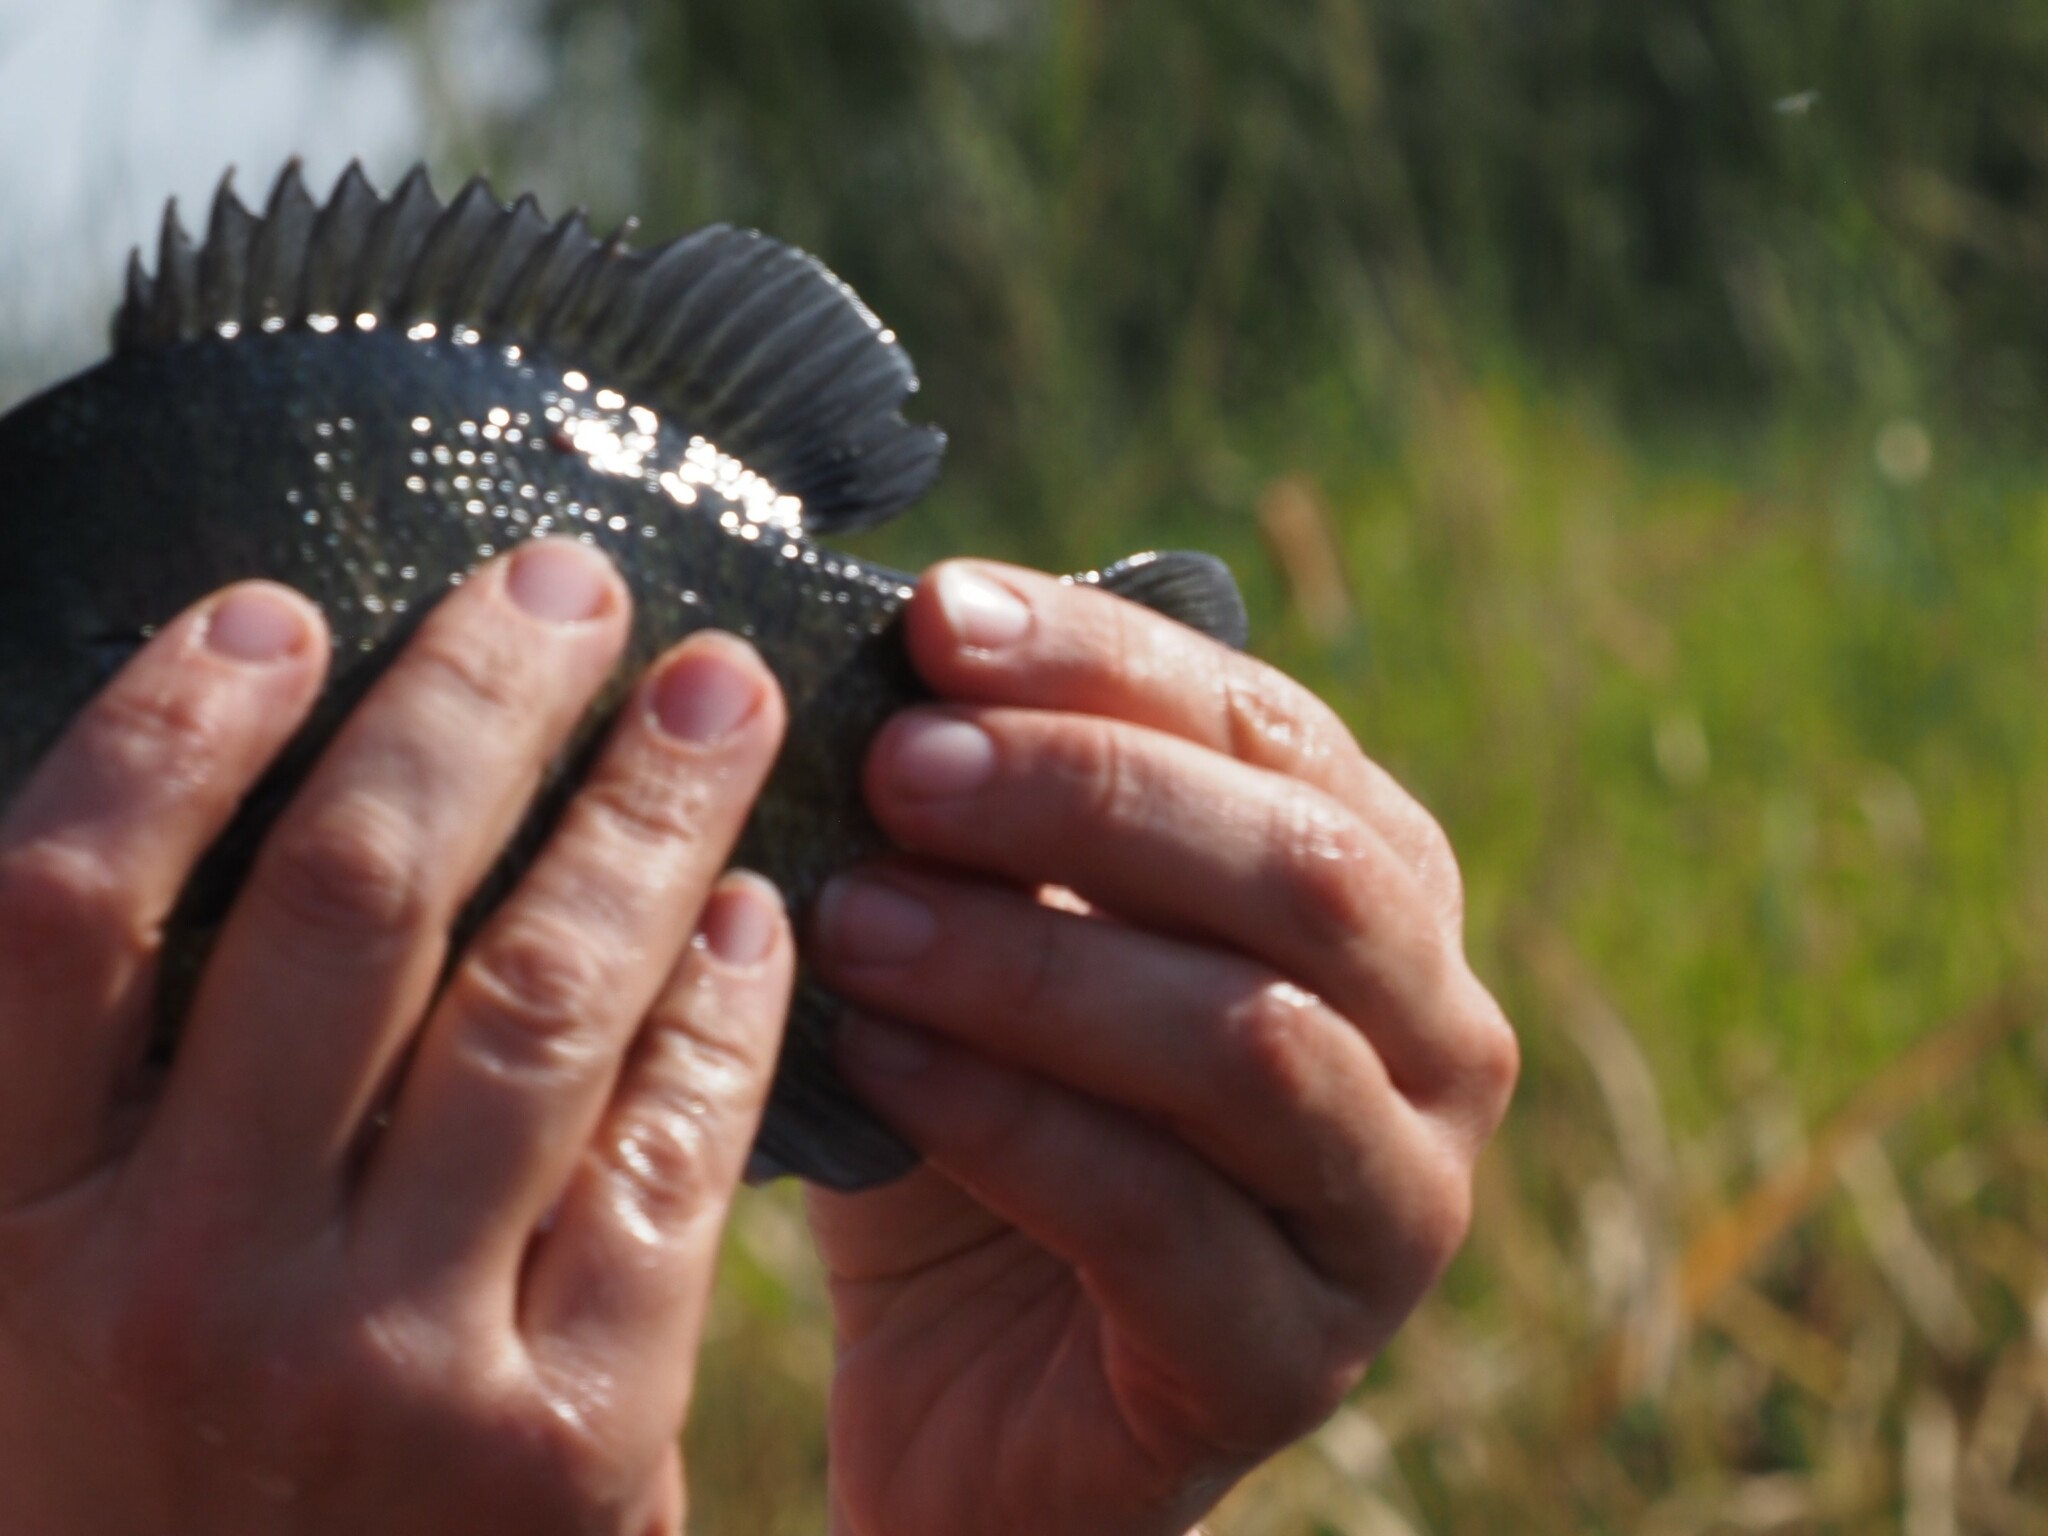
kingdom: Animalia
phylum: Chordata
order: Perciformes
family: Centrarchidae
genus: Lepomis
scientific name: Lepomis macrochirus
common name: Bluegill
